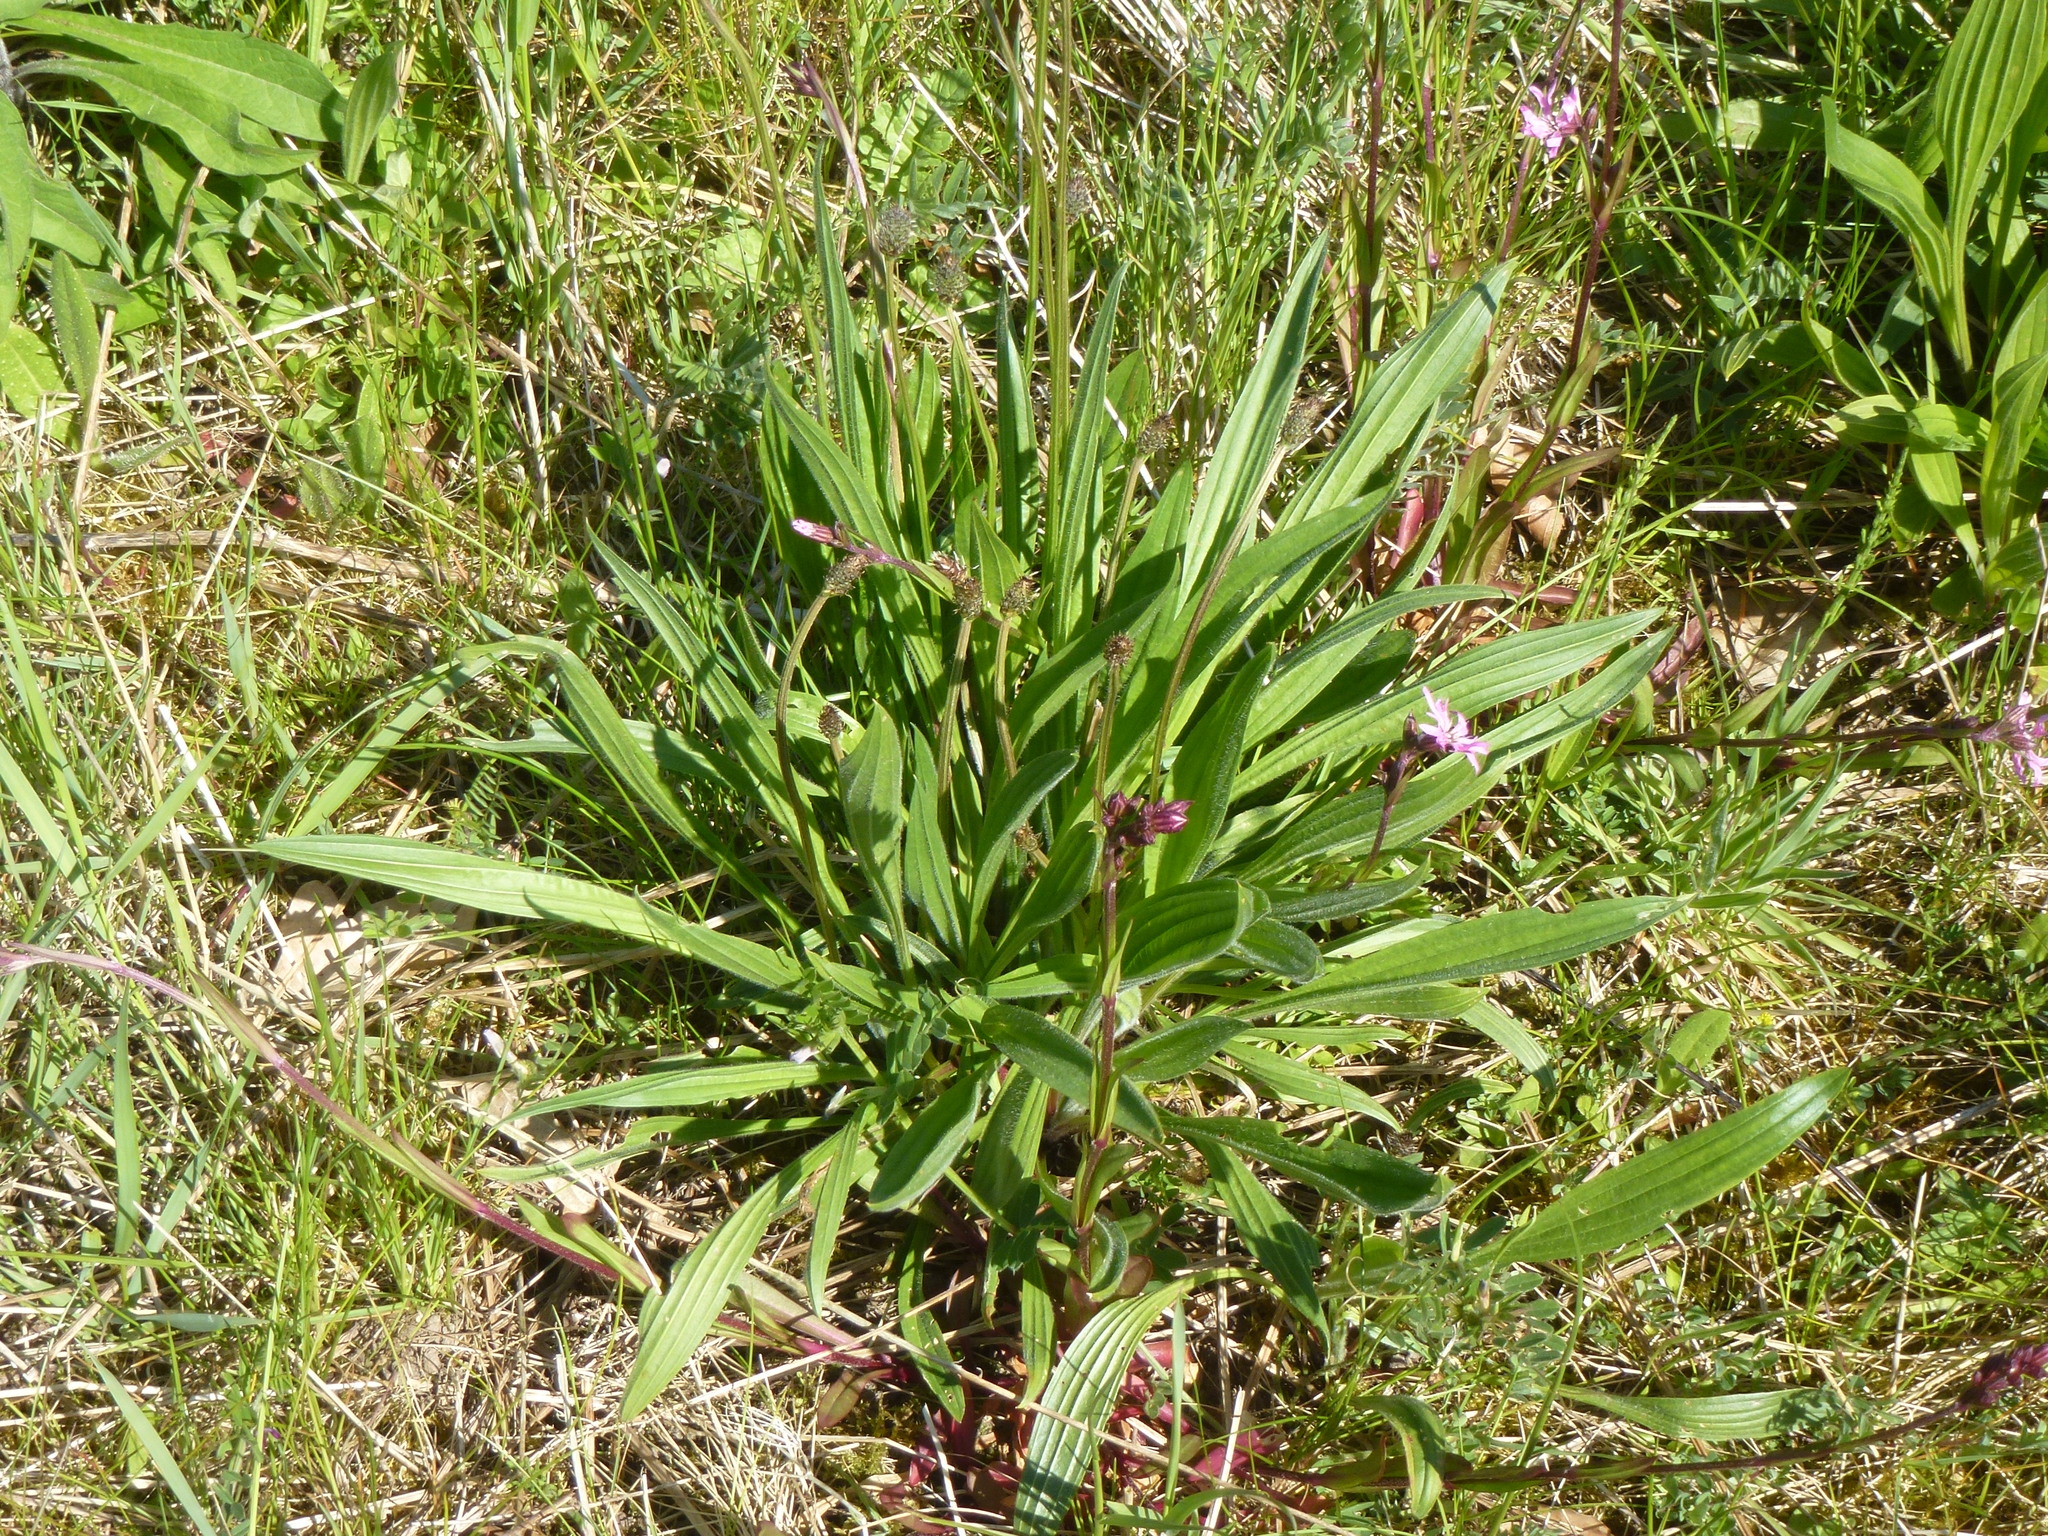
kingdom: Plantae
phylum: Tracheophyta
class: Magnoliopsida
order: Lamiales
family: Plantaginaceae
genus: Plantago
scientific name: Plantago lanceolata
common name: Ribwort plantain
